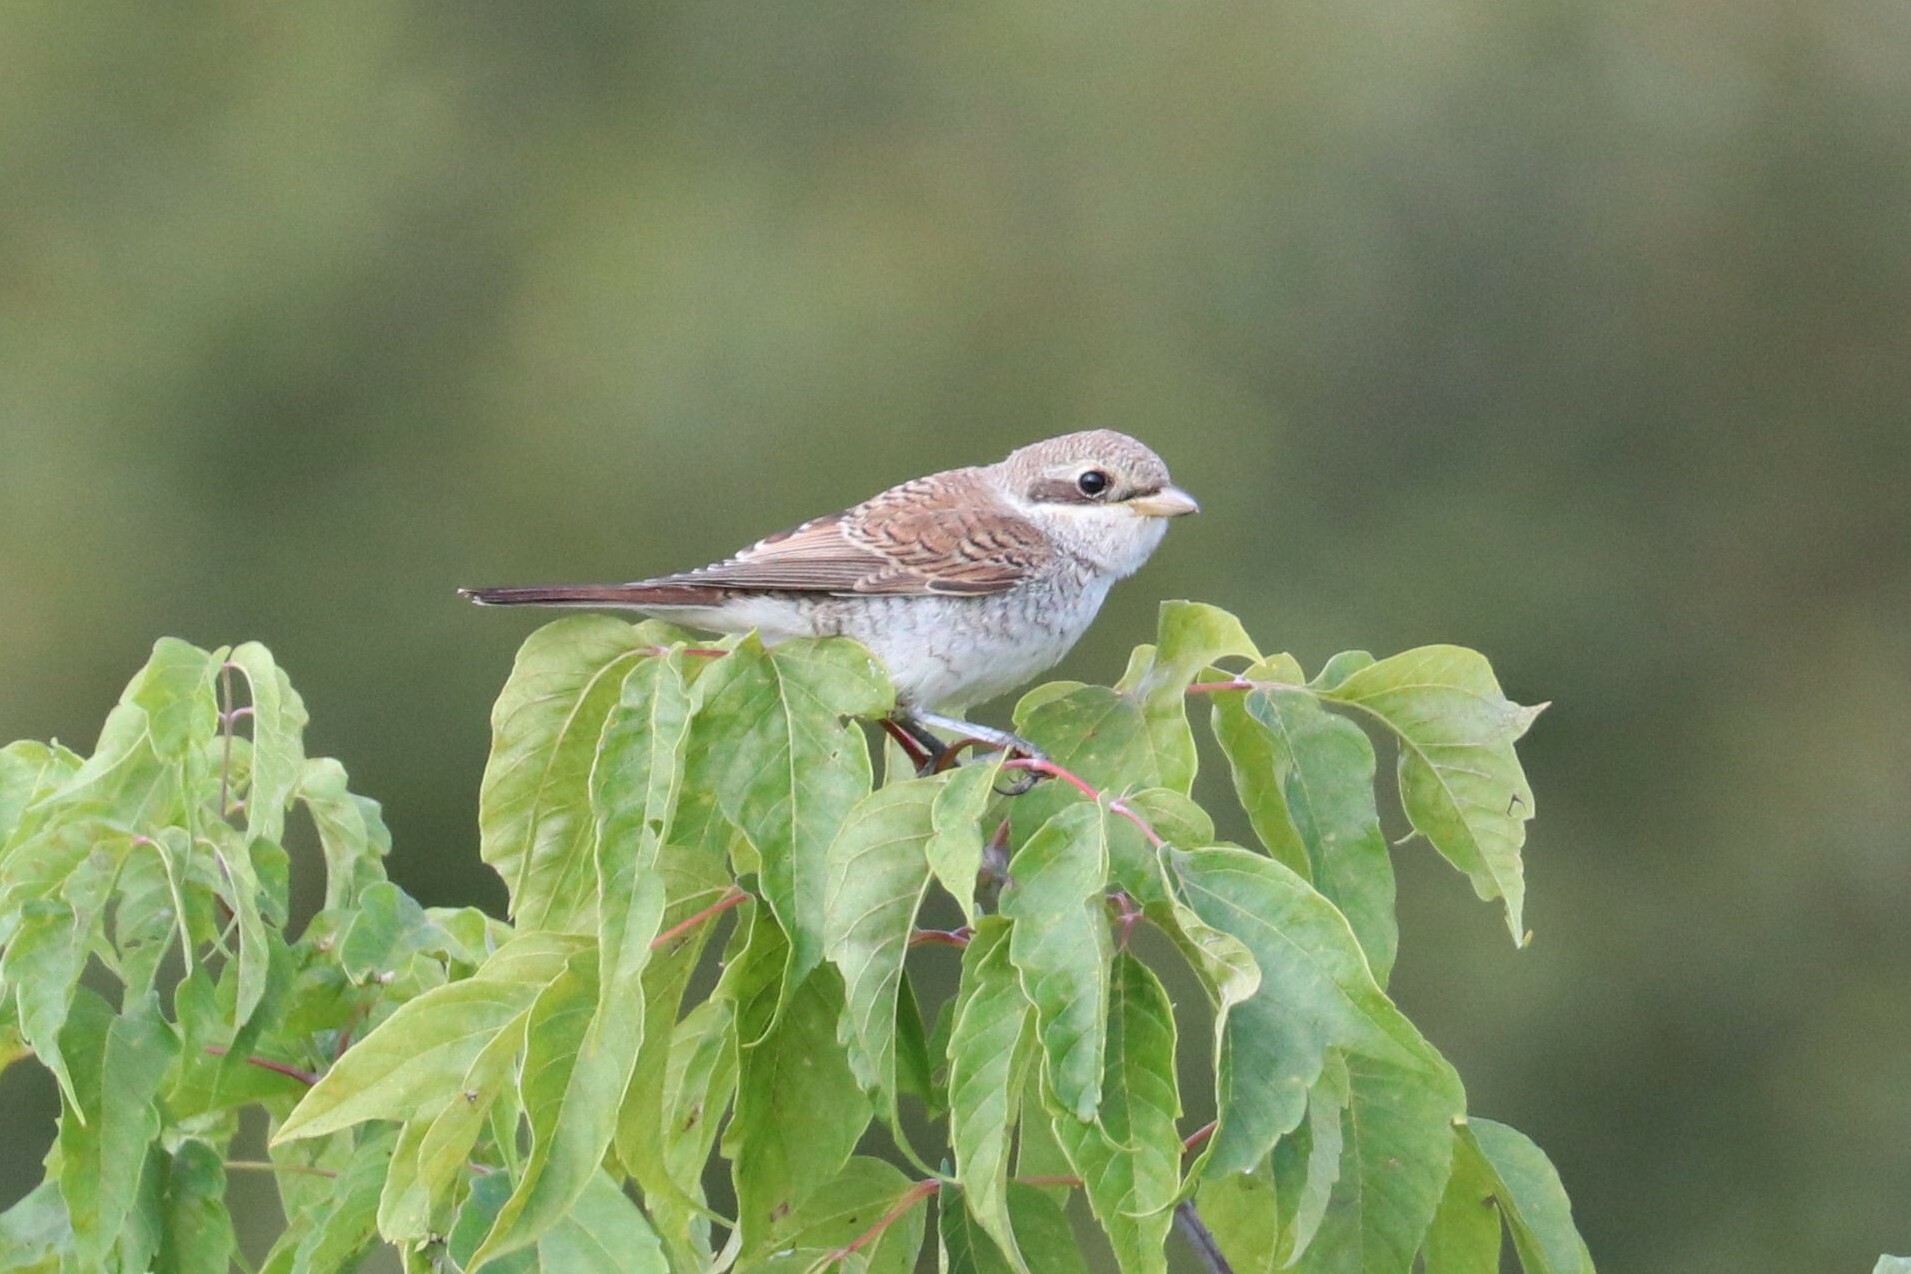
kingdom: Animalia
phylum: Chordata
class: Aves
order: Passeriformes
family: Laniidae
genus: Lanius
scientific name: Lanius collurio
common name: Red-backed shrike
